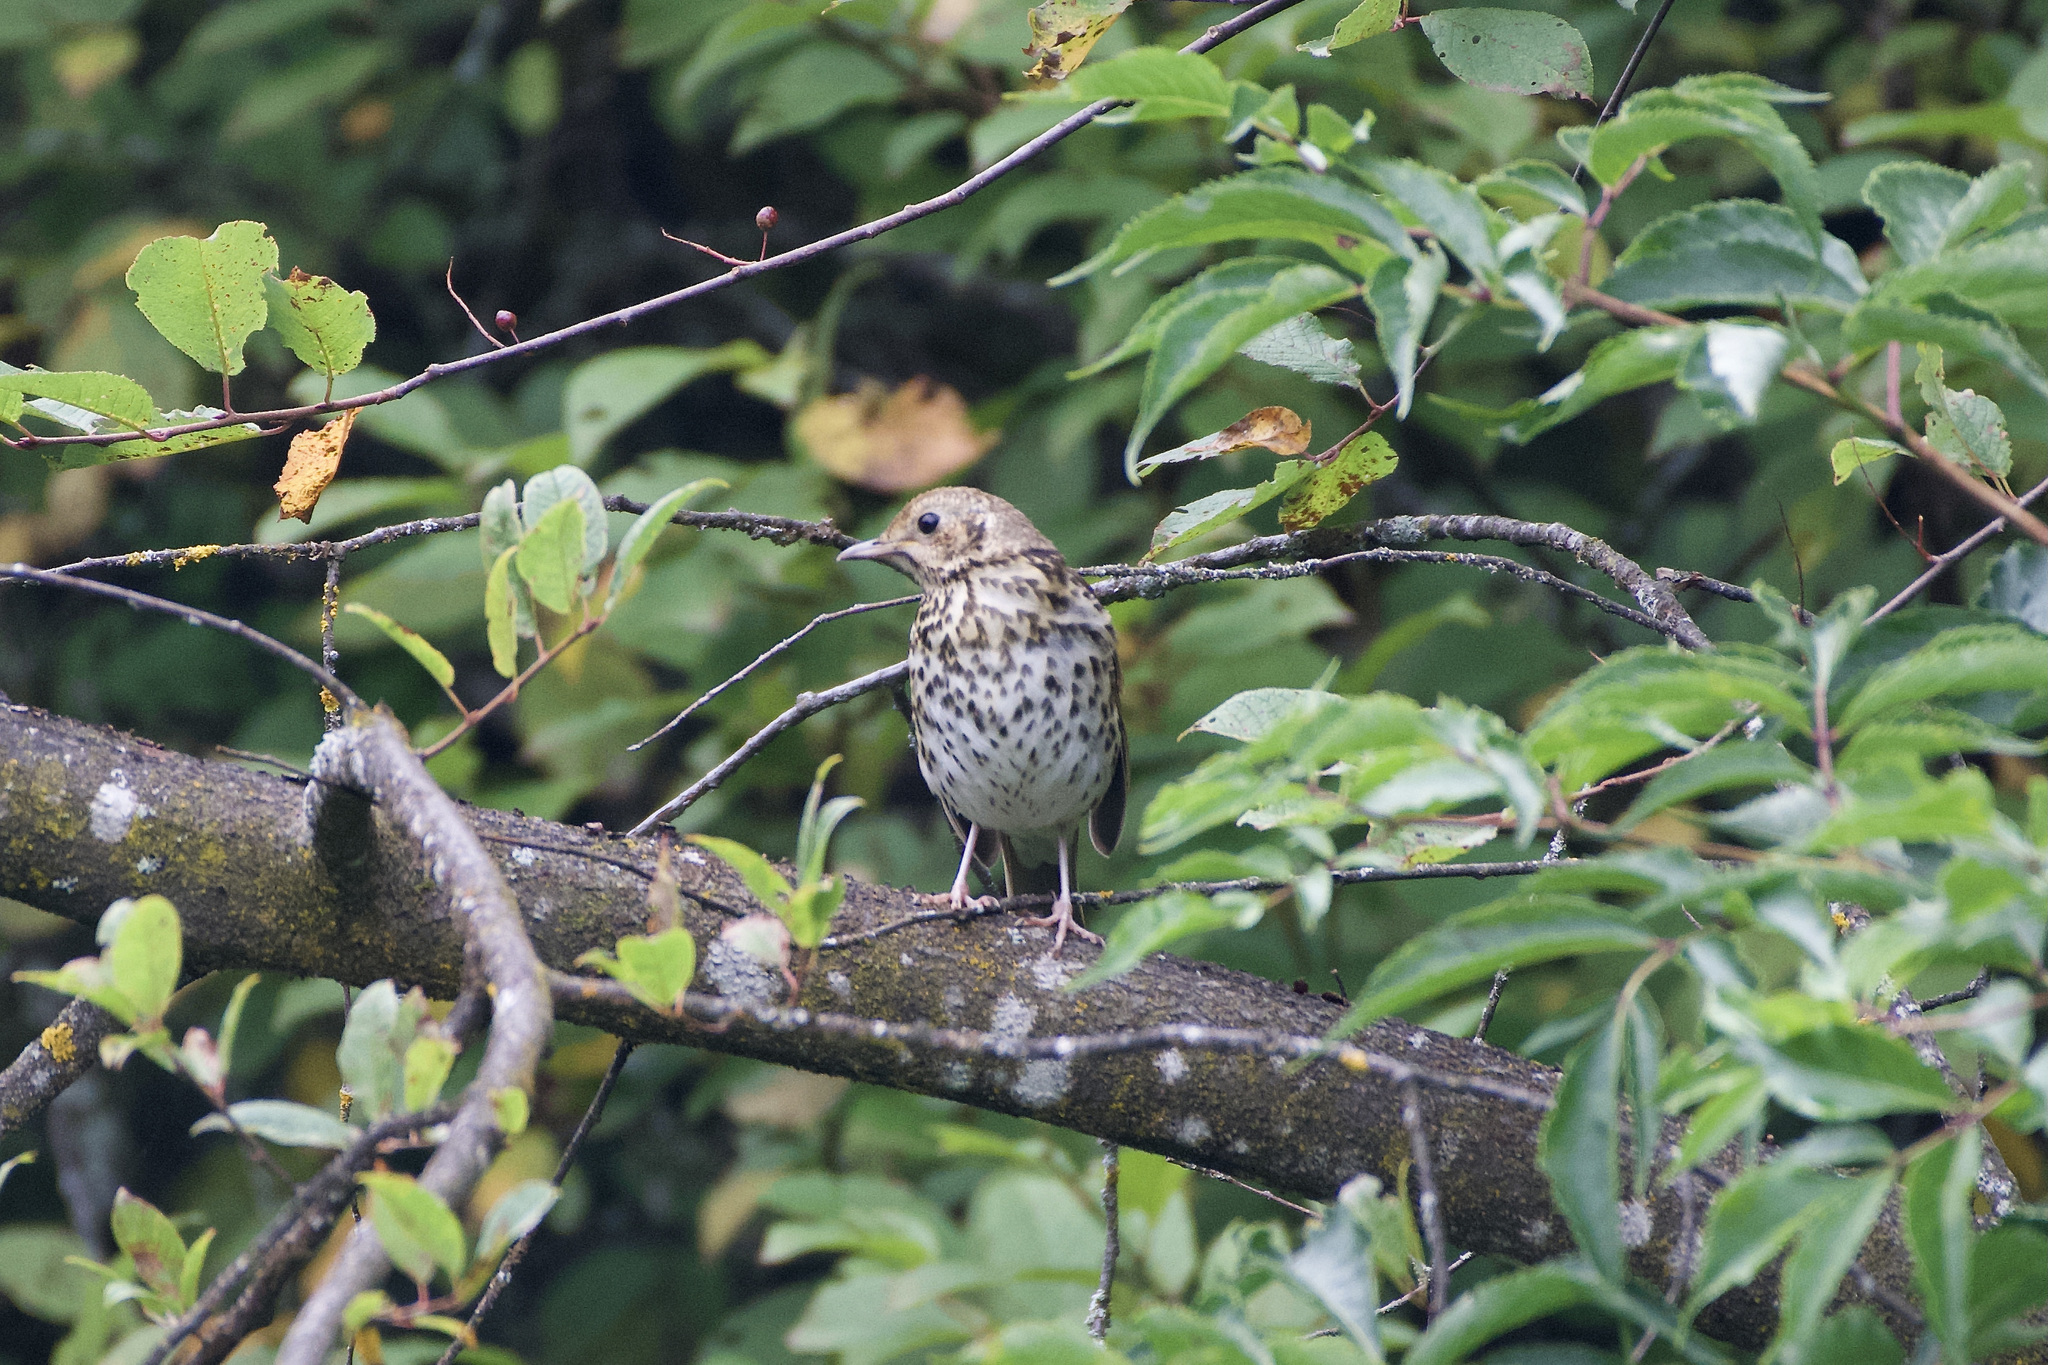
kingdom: Animalia
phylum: Chordata
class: Aves
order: Passeriformes
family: Turdidae
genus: Turdus
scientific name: Turdus philomelos
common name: Song thrush
